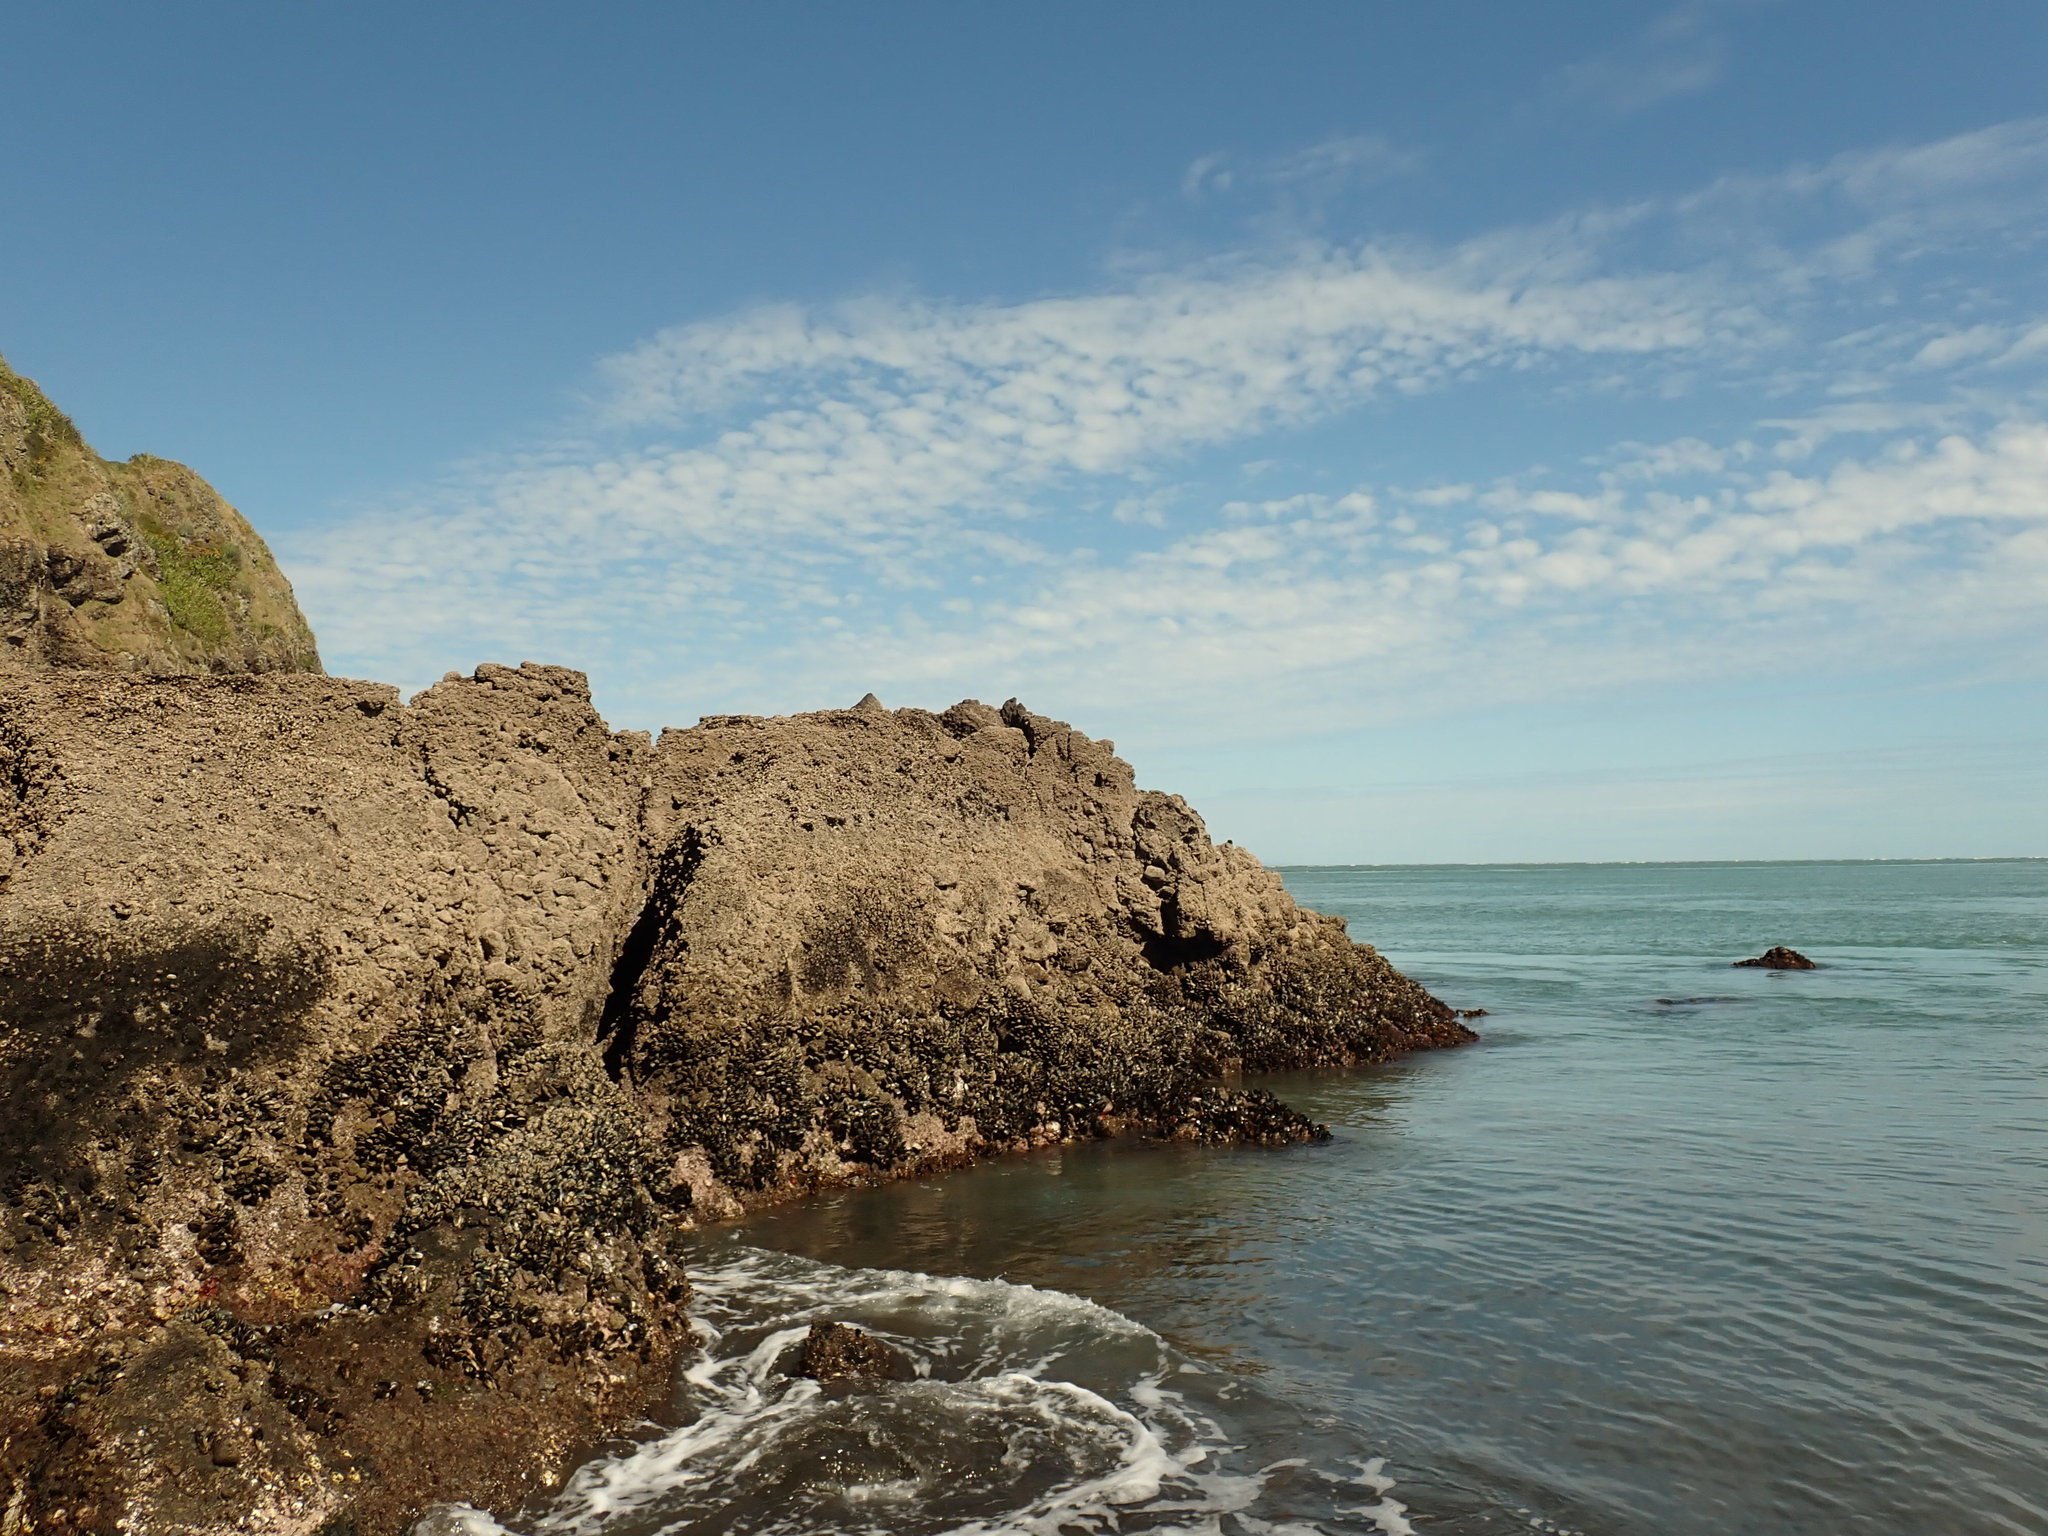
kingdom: Animalia
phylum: Mollusca
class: Bivalvia
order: Mytilida
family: Mytilidae
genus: Perna
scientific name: Perna canaliculus
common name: New zealand greenshelltm
